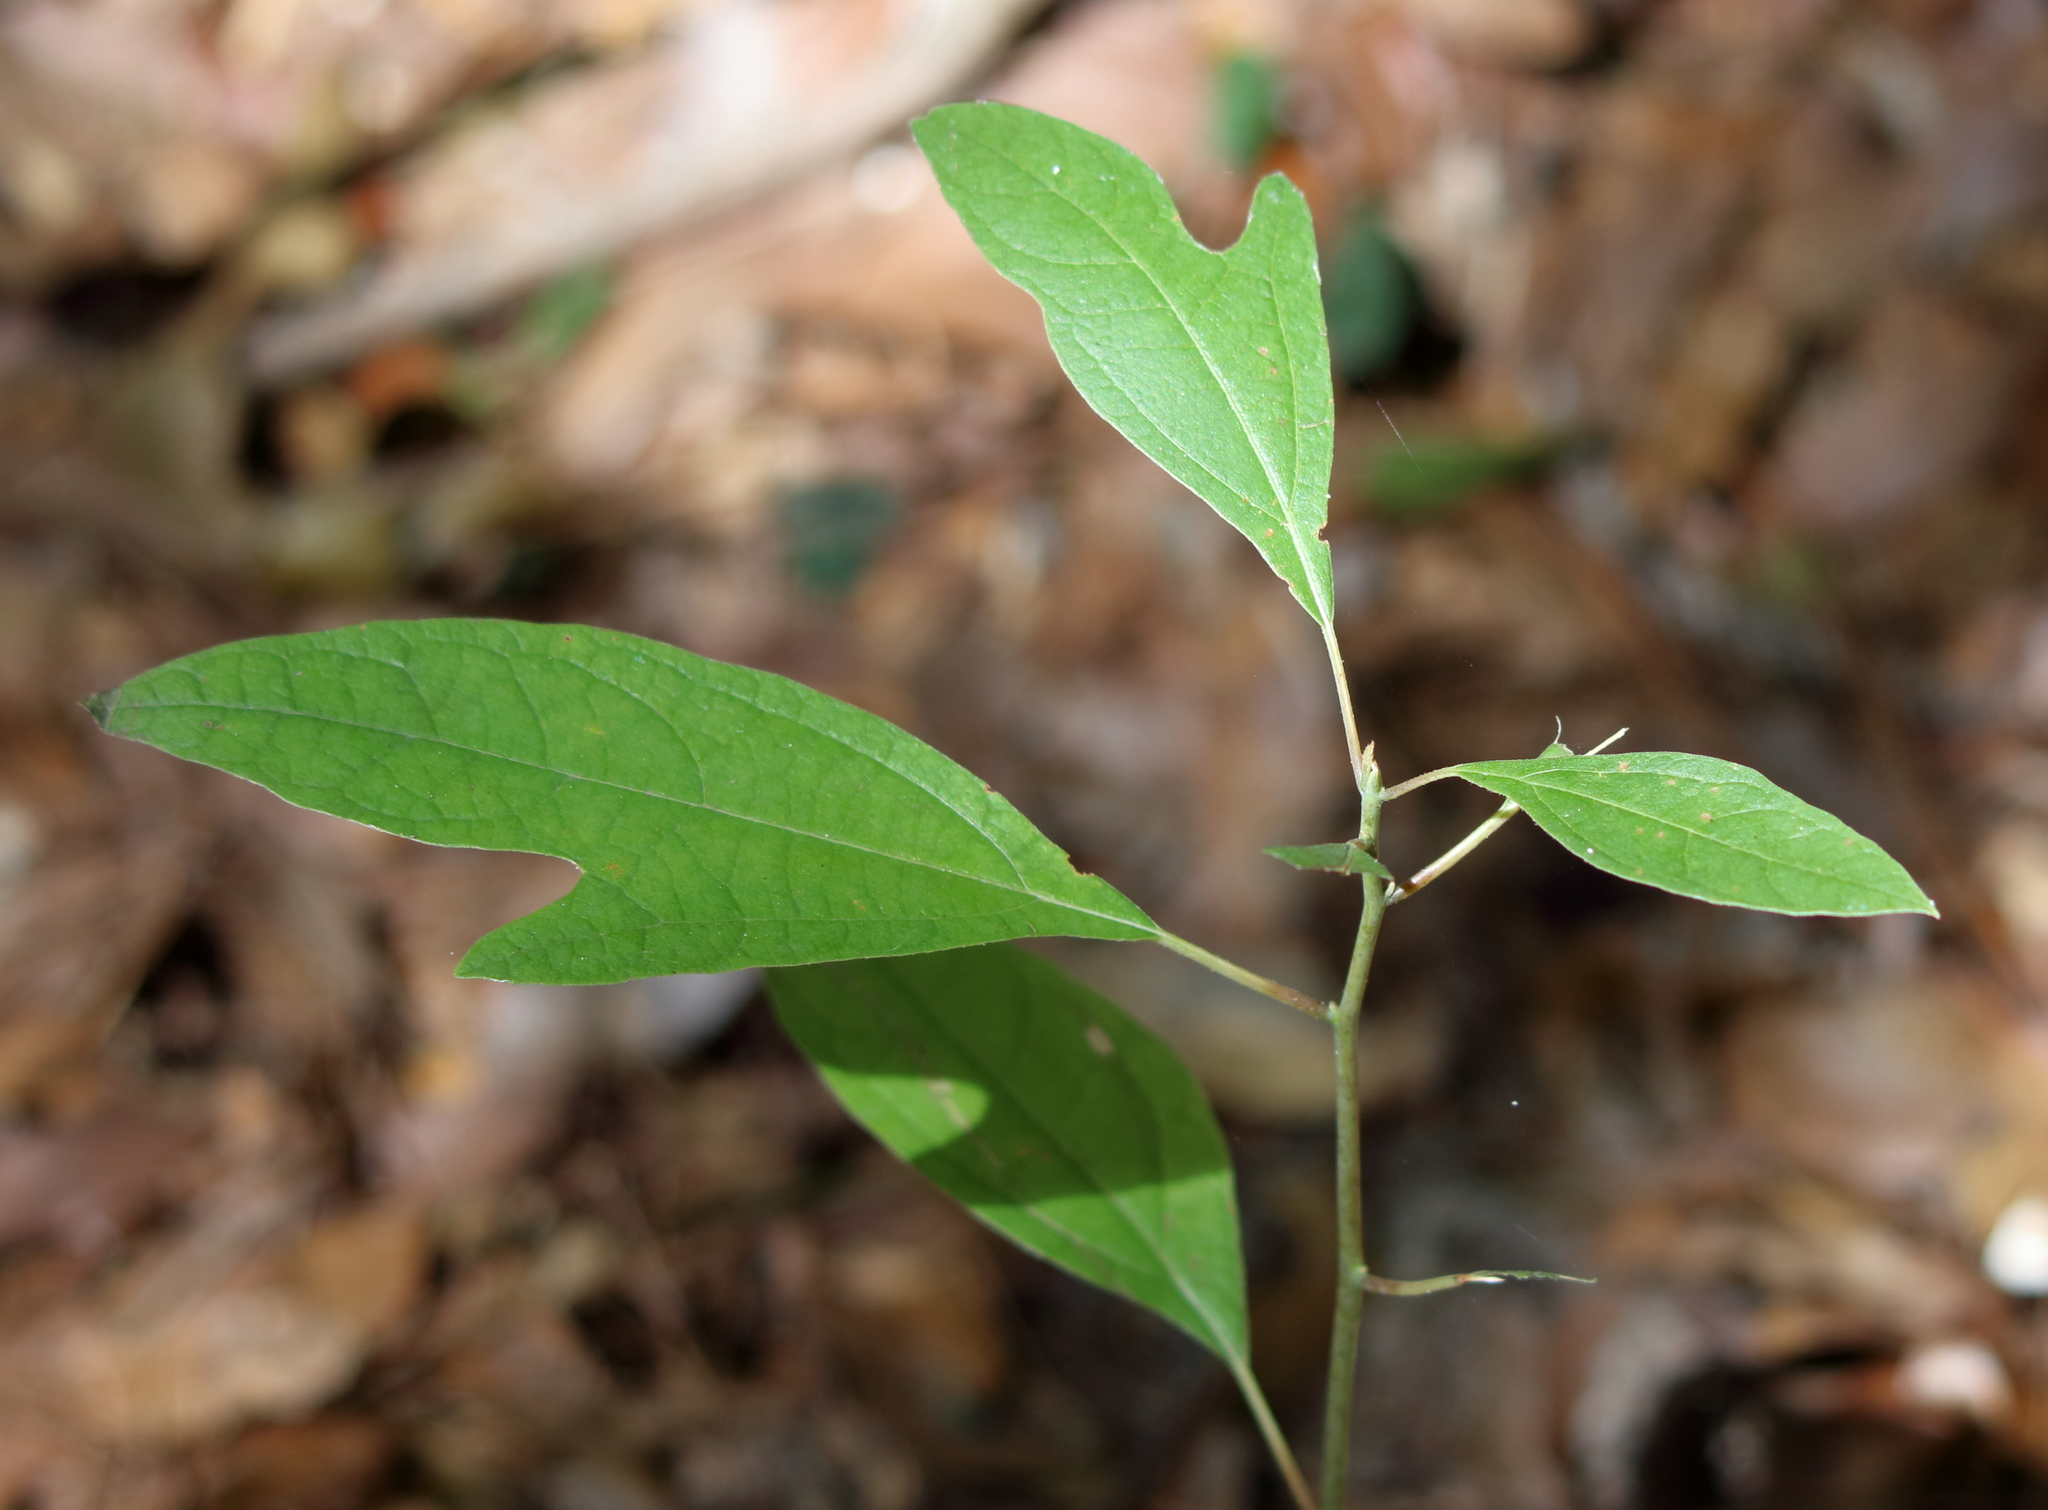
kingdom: Plantae
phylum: Tracheophyta
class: Magnoliopsida
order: Laurales
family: Lauraceae
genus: Sassafras
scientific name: Sassafras albidum
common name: Sassafras
